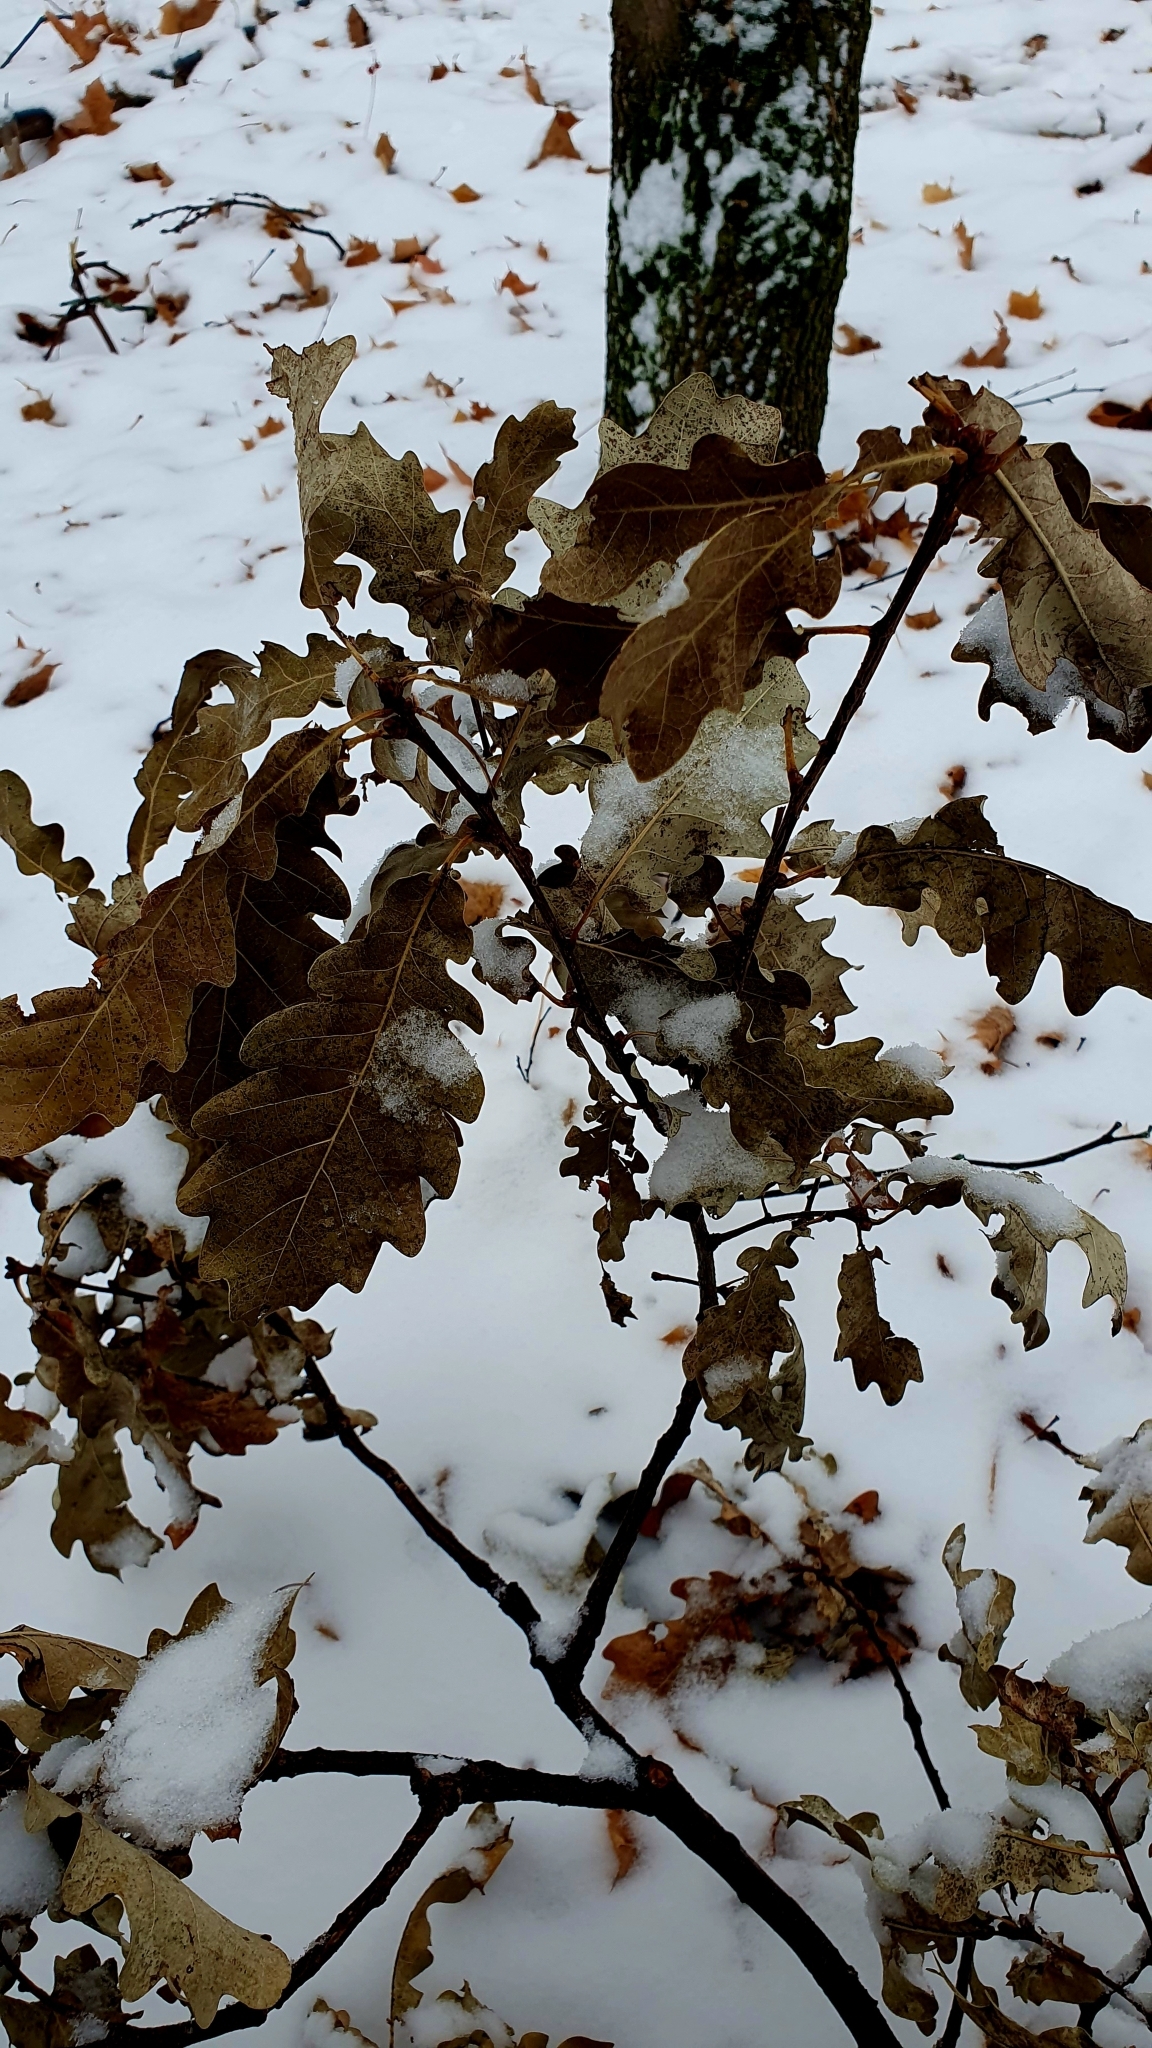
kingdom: Plantae
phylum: Tracheophyta
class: Magnoliopsida
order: Fagales
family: Fagaceae
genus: Quercus
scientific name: Quercus robur
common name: Pedunculate oak
